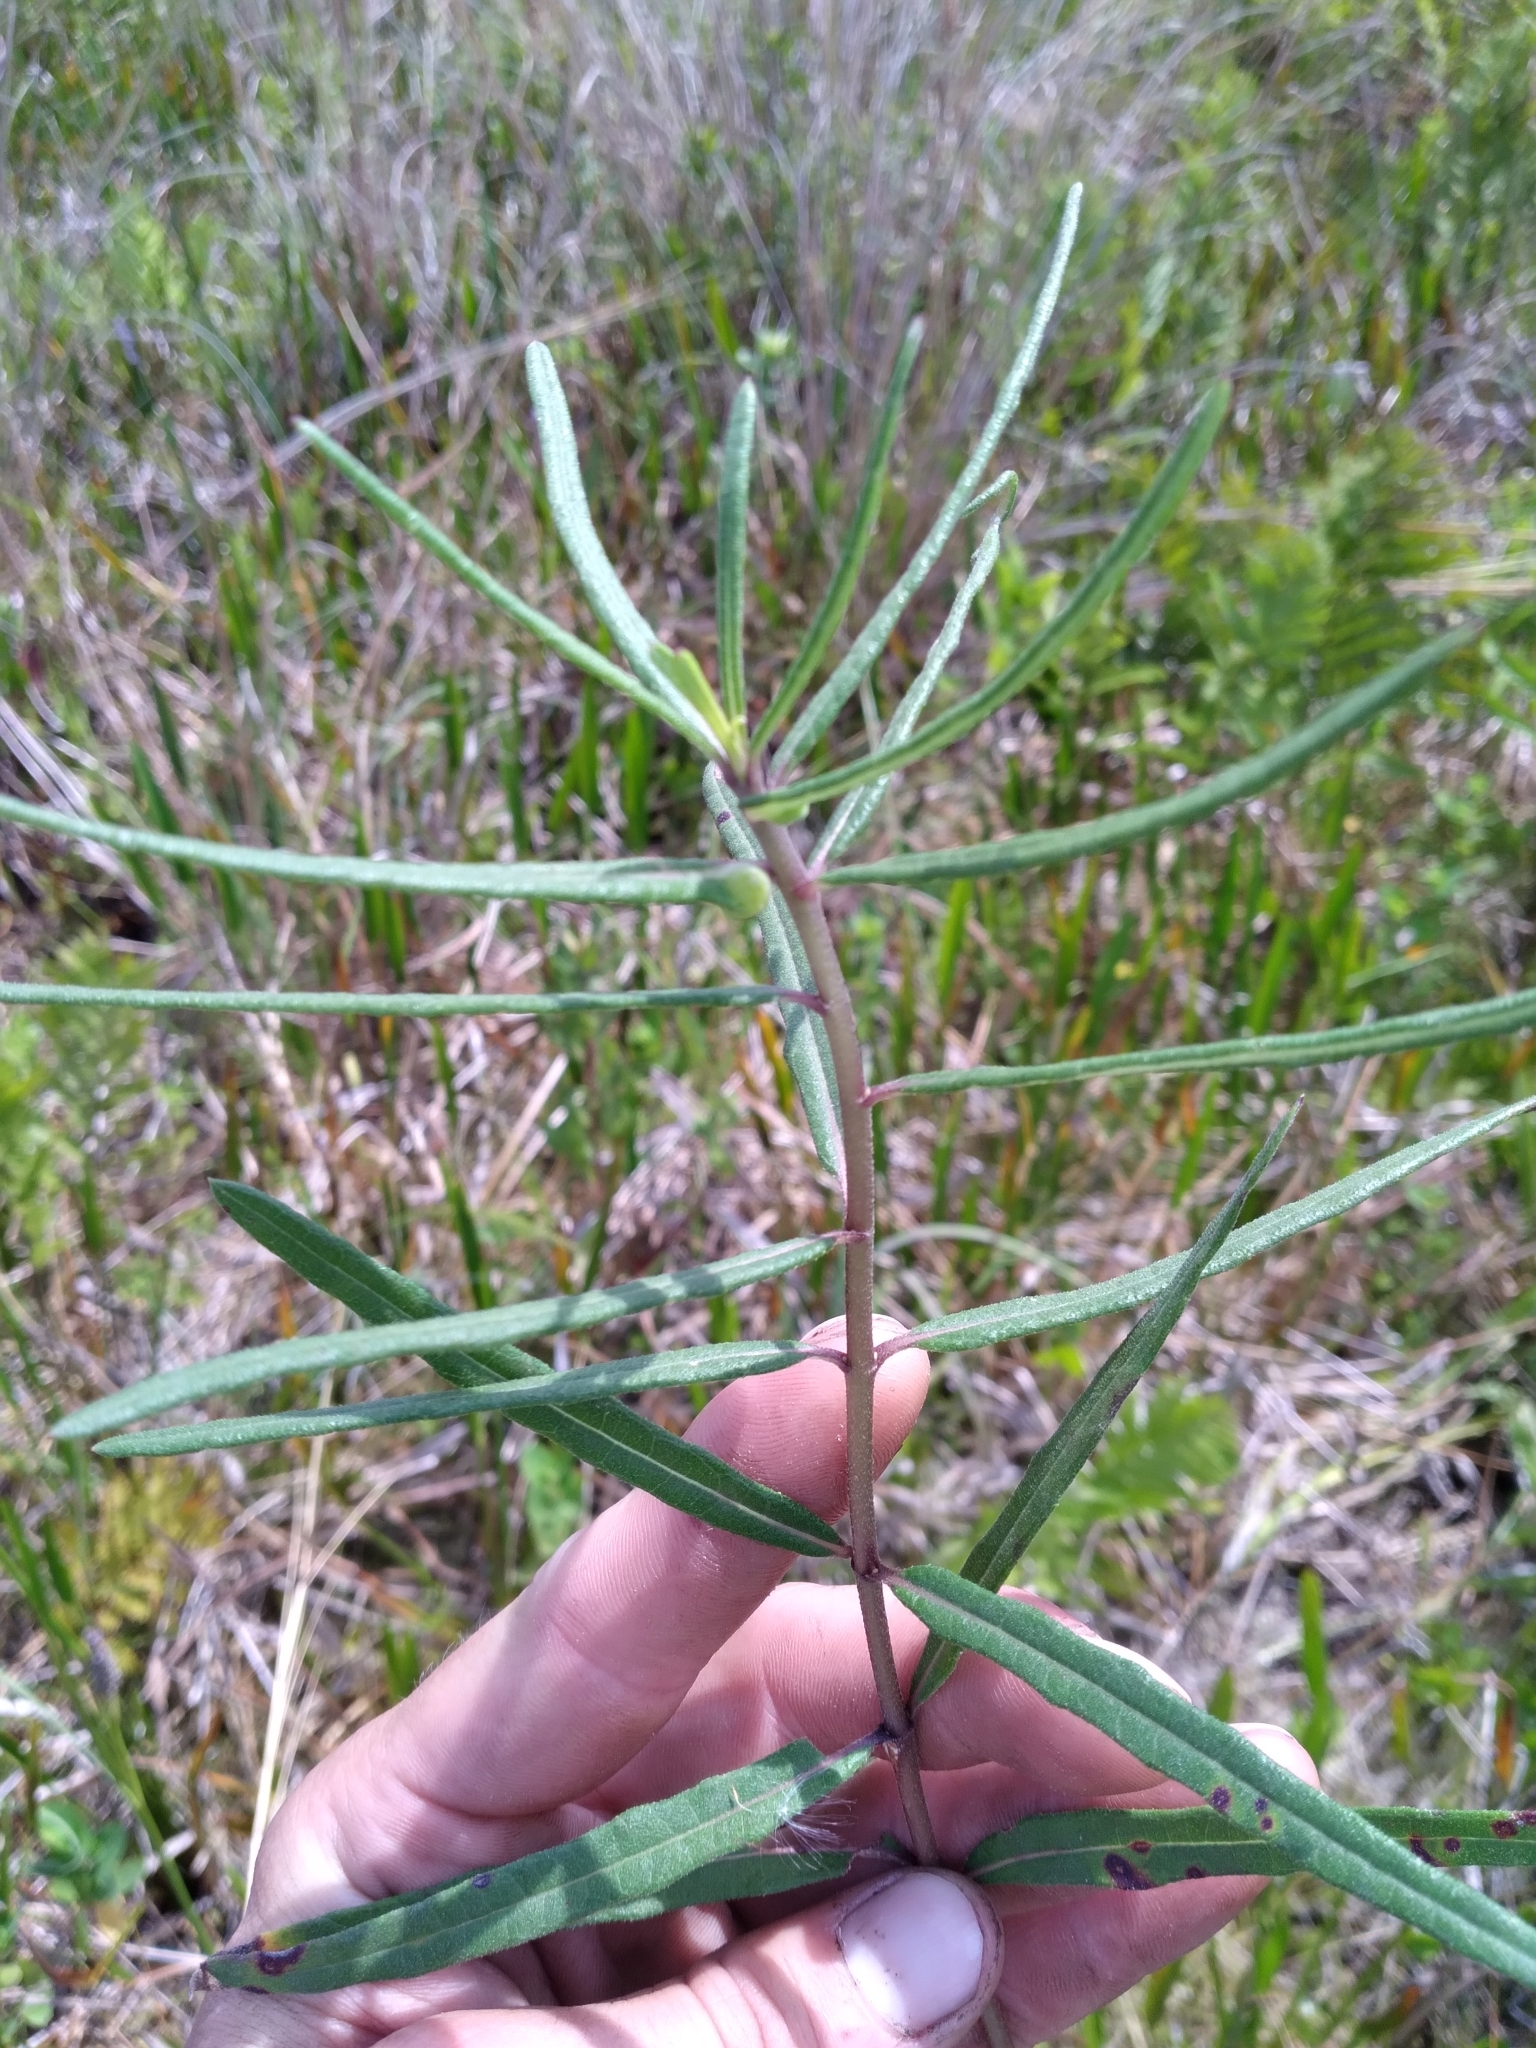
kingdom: Plantae
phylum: Tracheophyta
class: Magnoliopsida
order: Asterales
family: Asteraceae
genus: Helianthus
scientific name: Helianthus angustifolius
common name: Swamp sunflower
